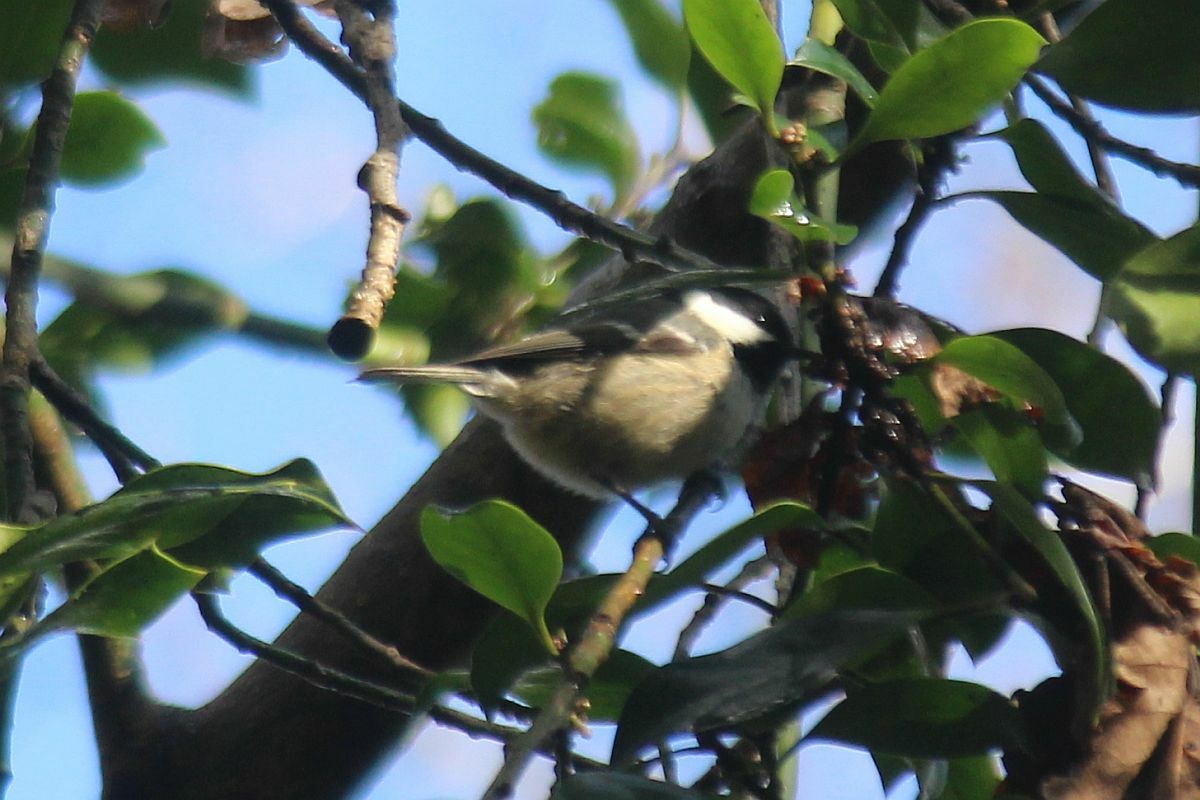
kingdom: Animalia
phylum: Chordata
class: Aves
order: Passeriformes
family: Paridae
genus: Periparus
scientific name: Periparus ater
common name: Coal tit
